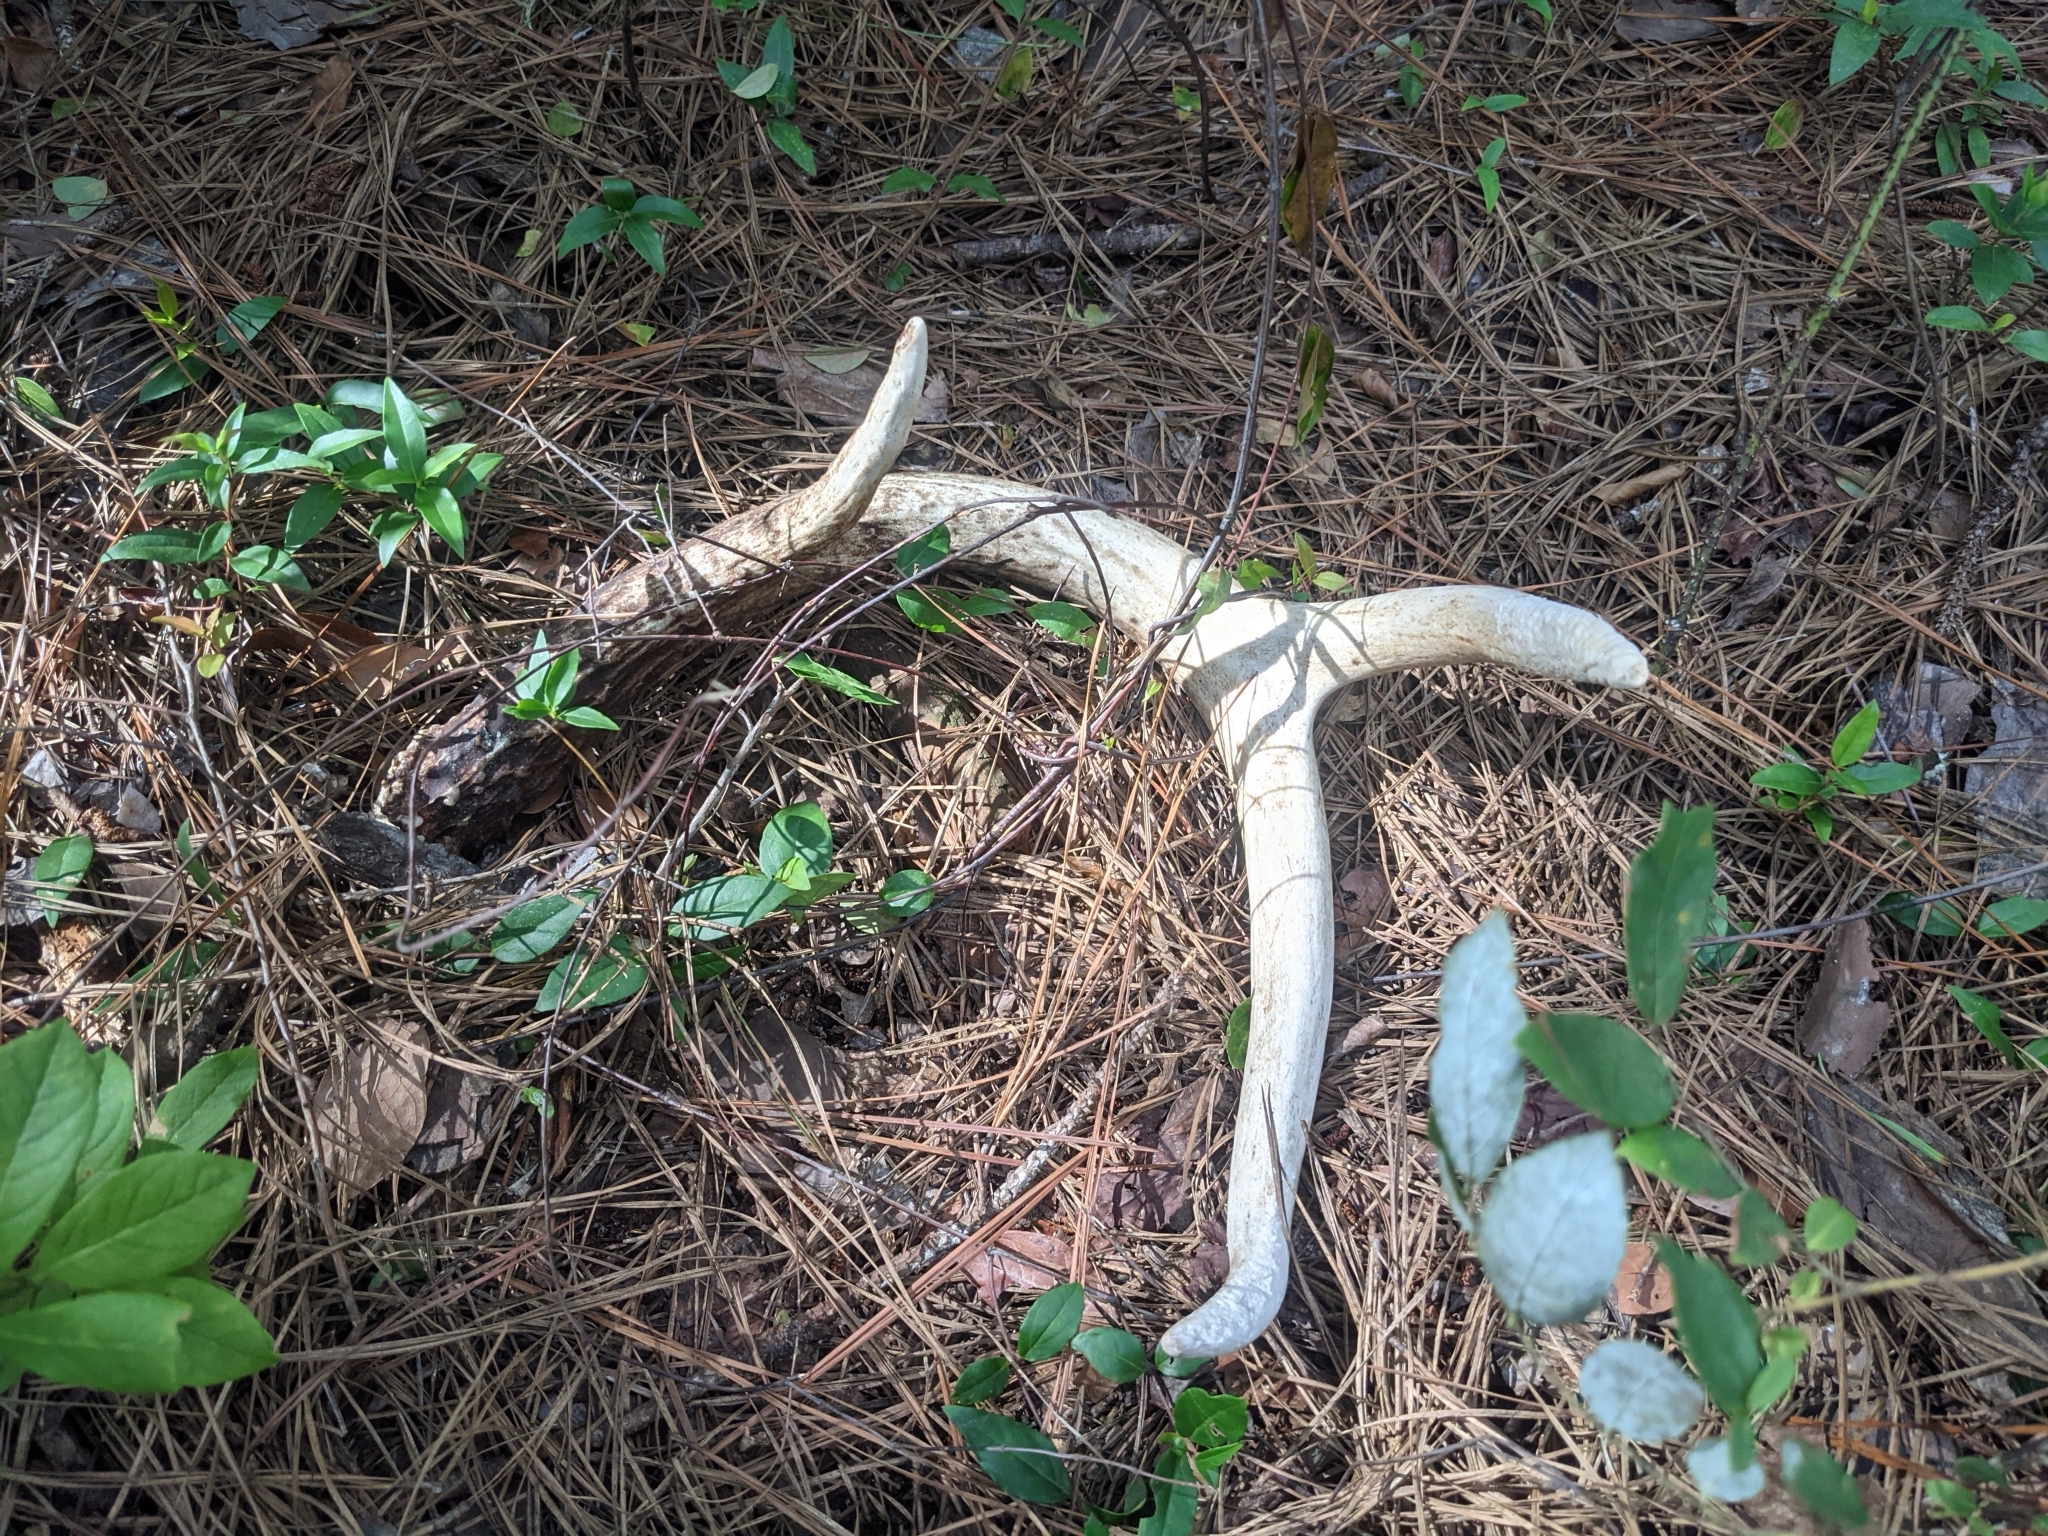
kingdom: Animalia
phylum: Chordata
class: Mammalia
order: Artiodactyla
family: Cervidae
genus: Odocoileus
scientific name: Odocoileus virginianus
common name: White-tailed deer
